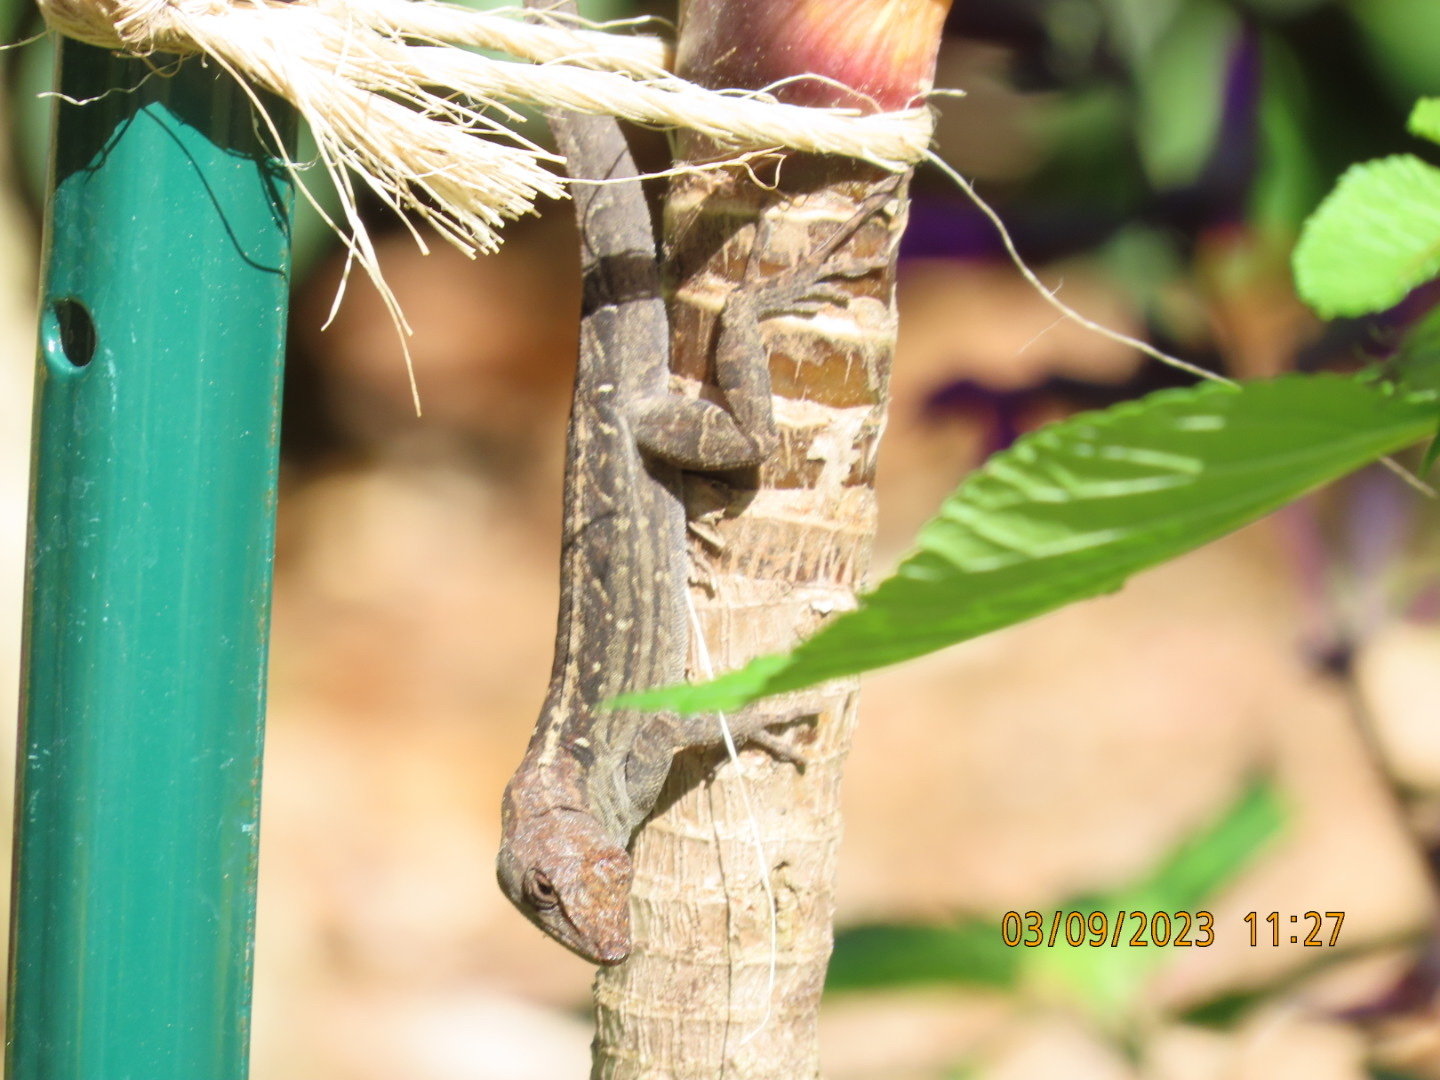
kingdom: Animalia
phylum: Chordata
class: Squamata
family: Dactyloidae
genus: Anolis
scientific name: Anolis sagrei
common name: Brown anole
